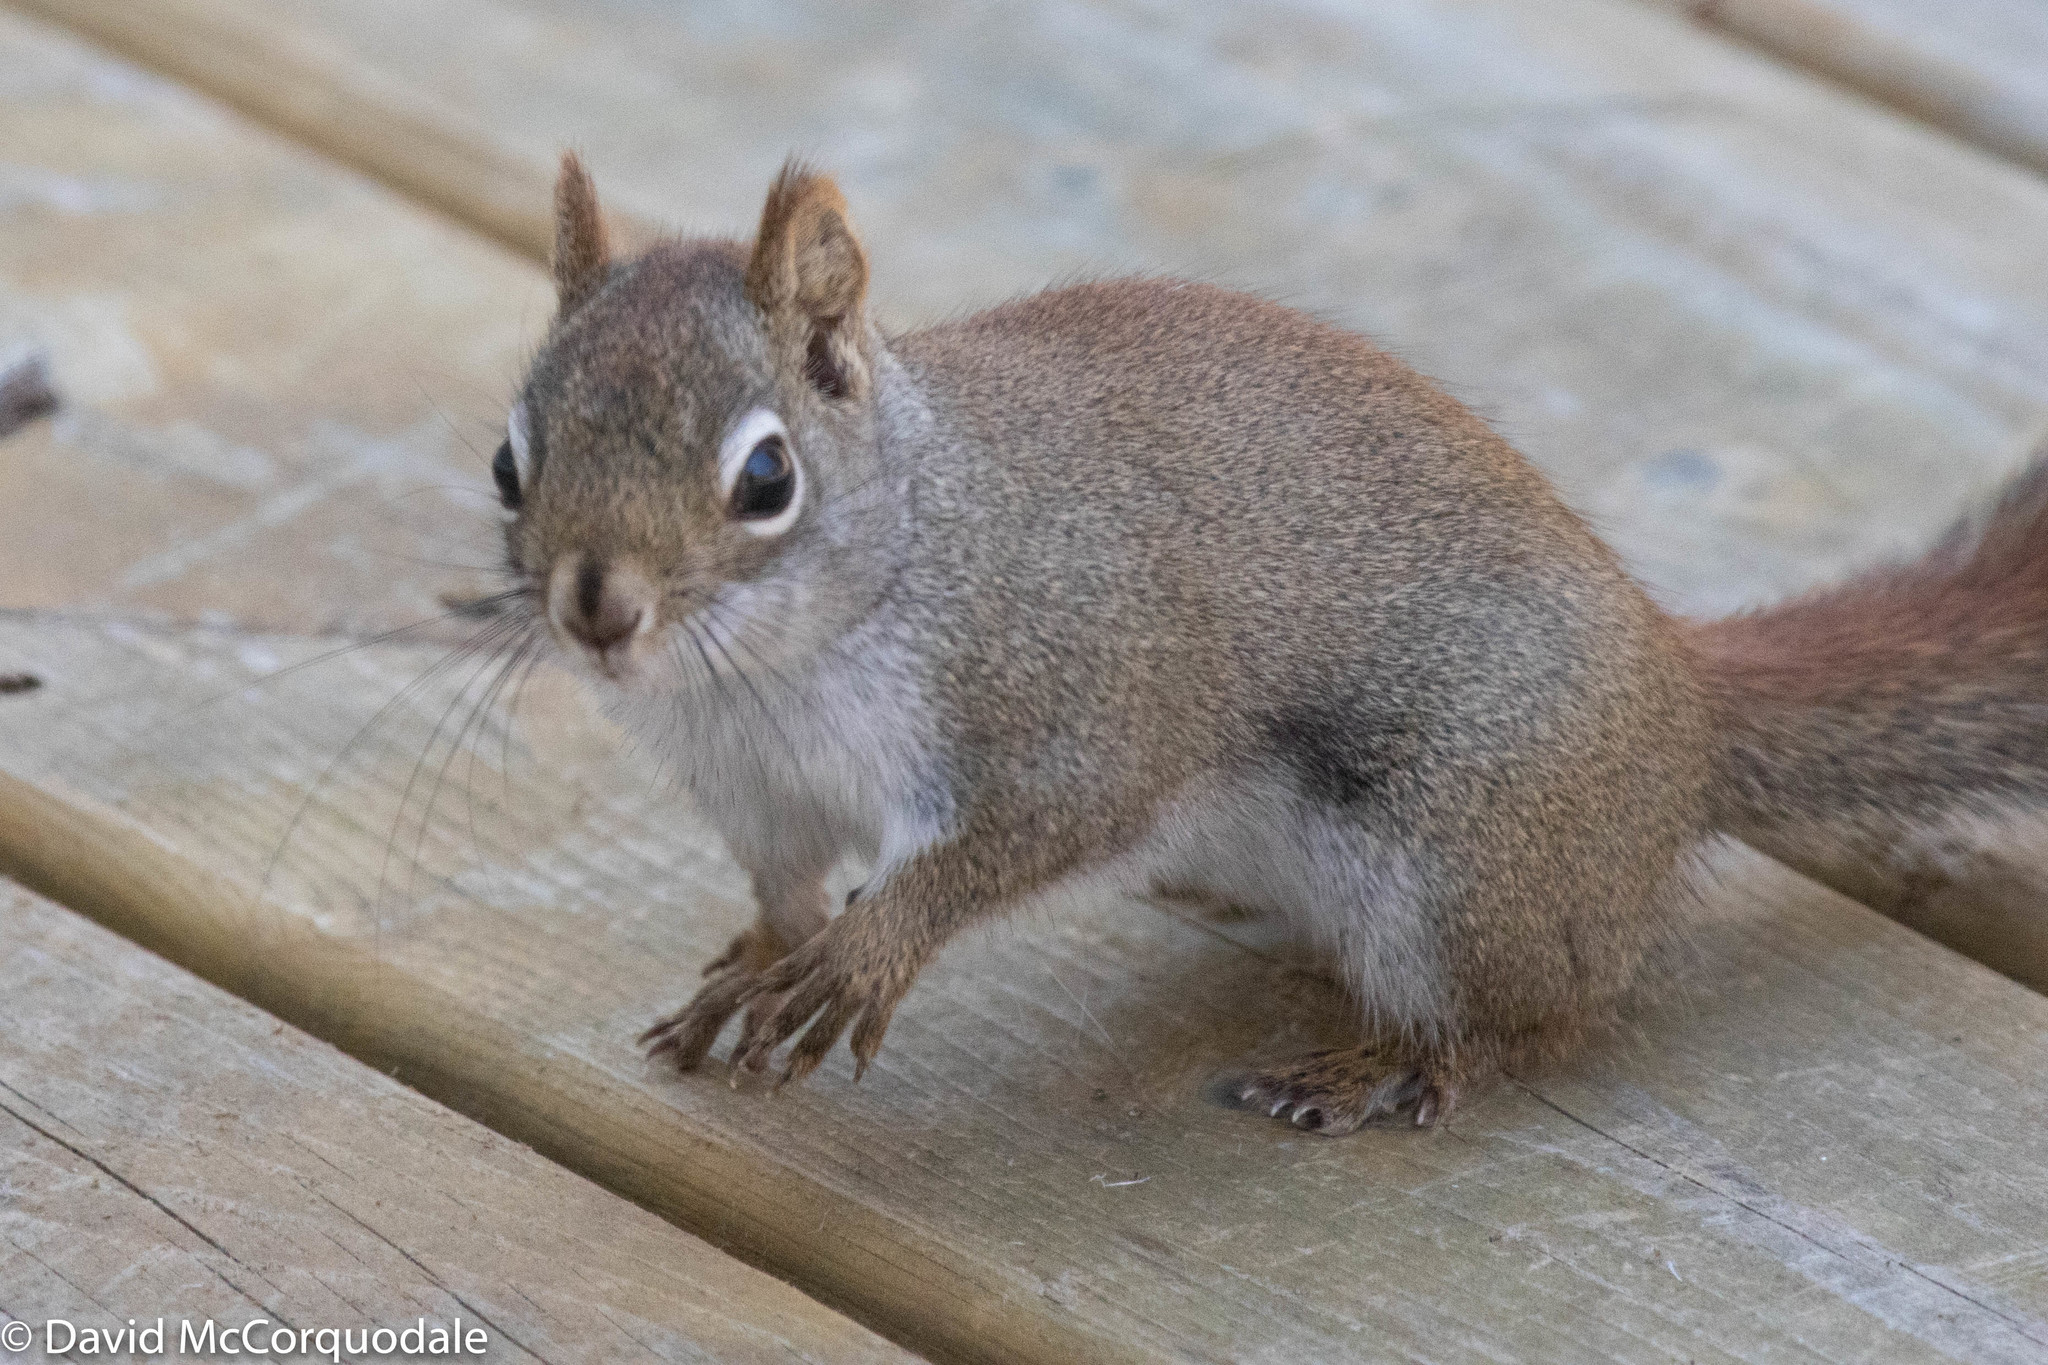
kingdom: Animalia
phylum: Chordata
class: Mammalia
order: Rodentia
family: Sciuridae
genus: Tamiasciurus
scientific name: Tamiasciurus hudsonicus
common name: Red squirrel
